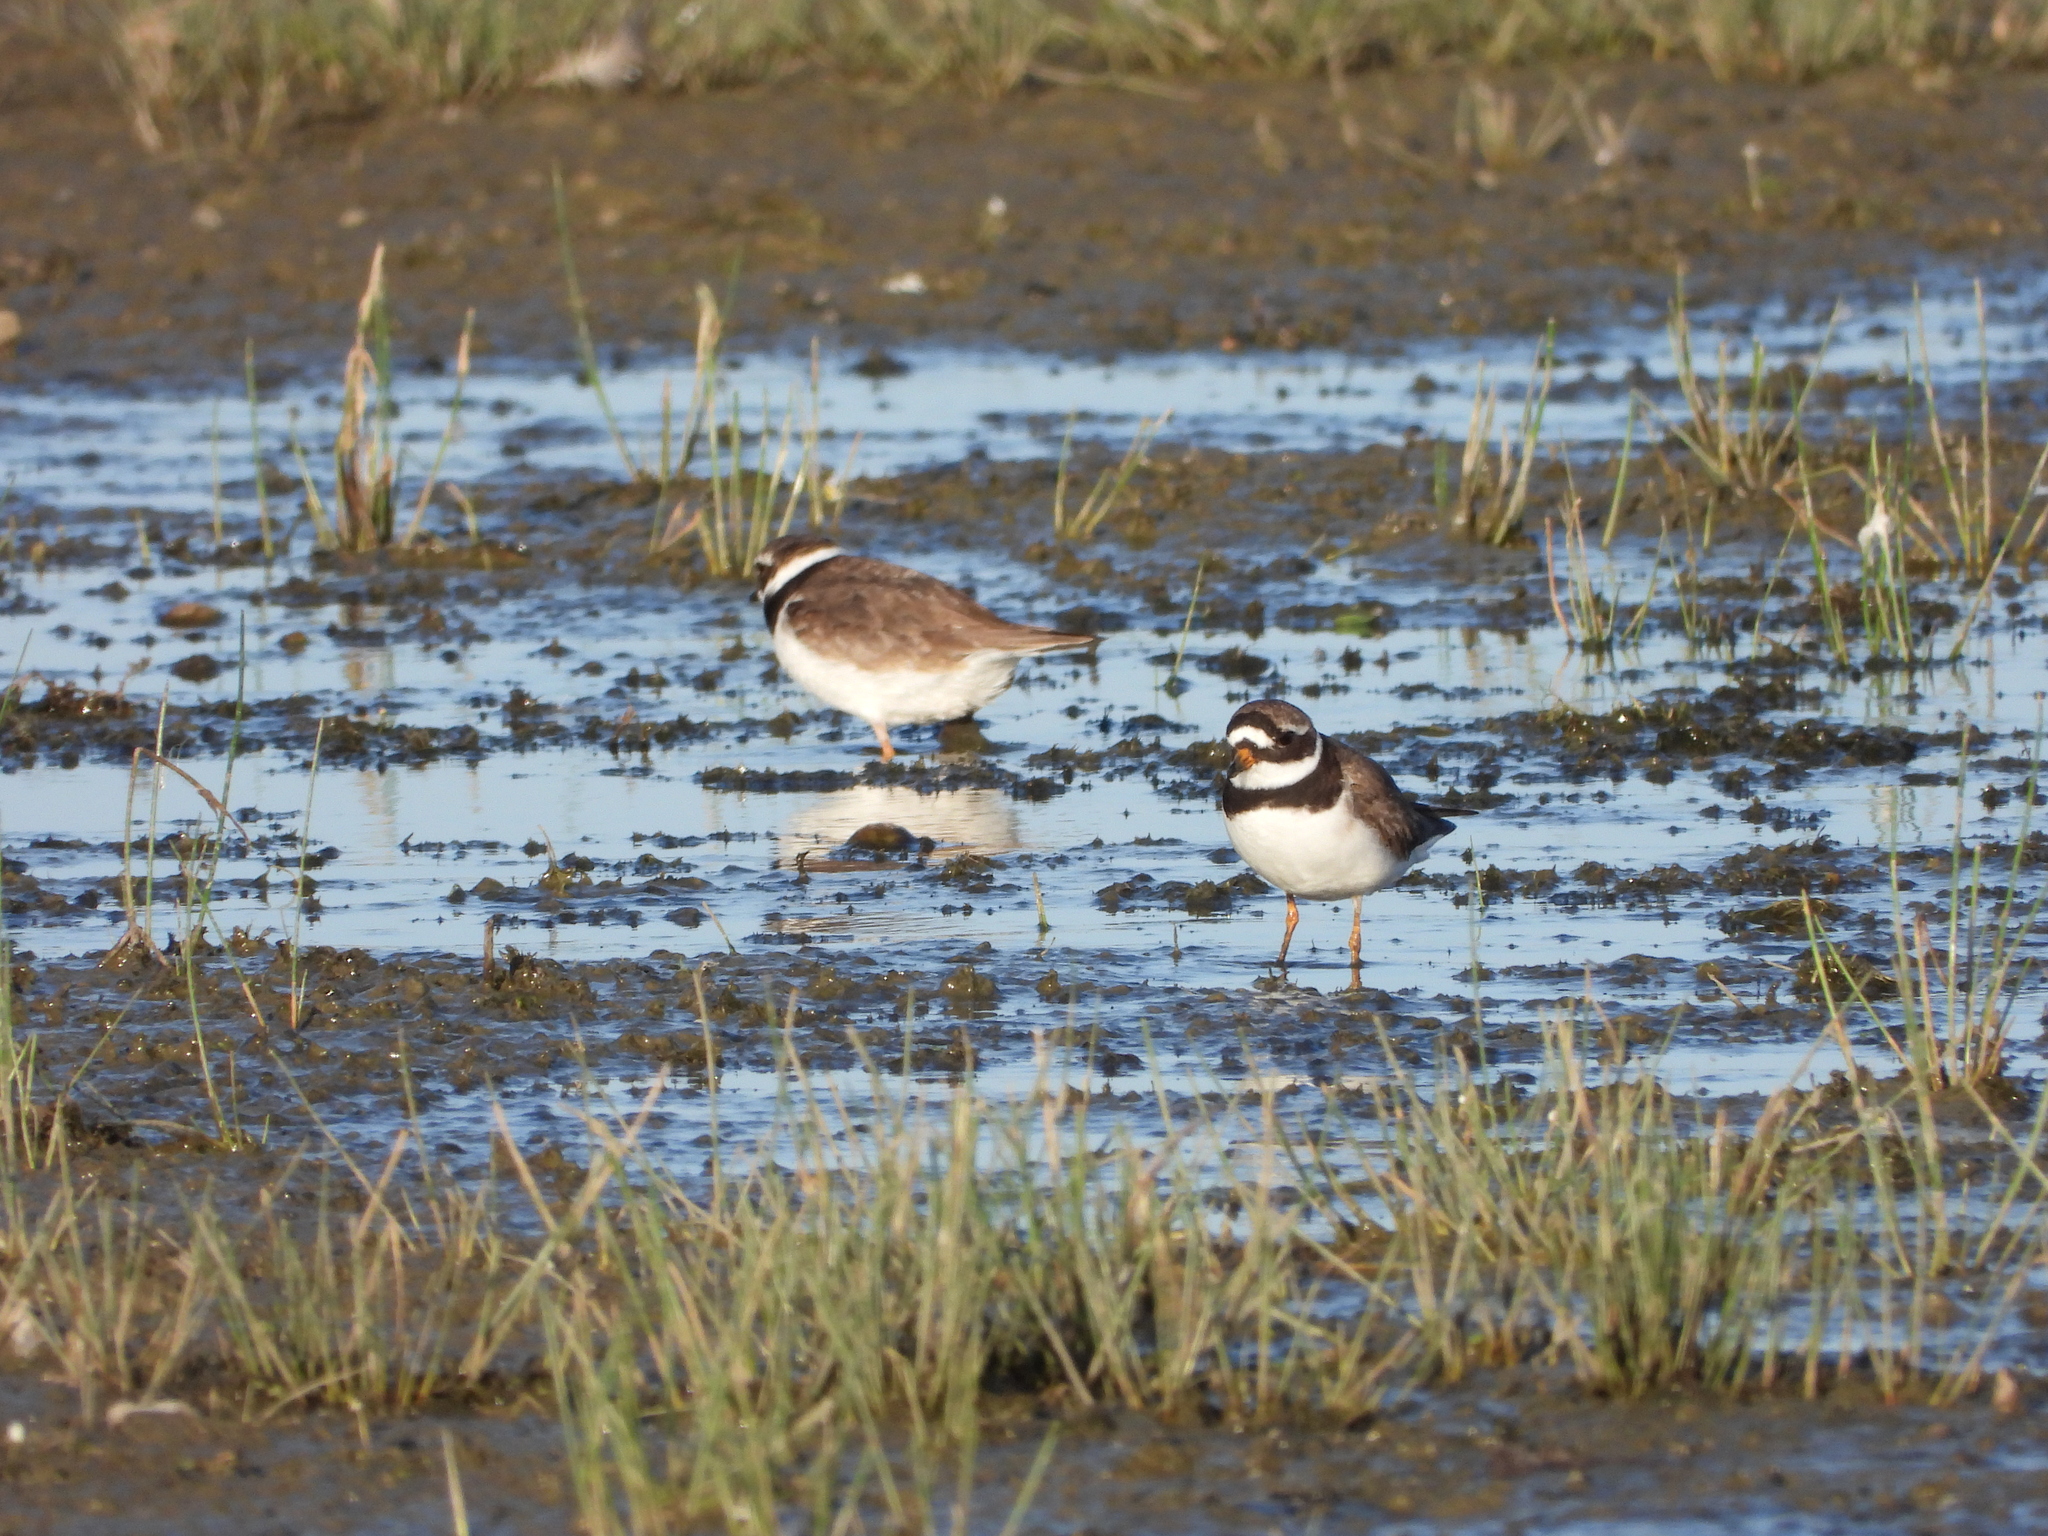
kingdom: Animalia
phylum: Chordata
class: Aves
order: Charadriiformes
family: Charadriidae
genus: Charadrius
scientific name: Charadrius hiaticula
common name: Common ringed plover
